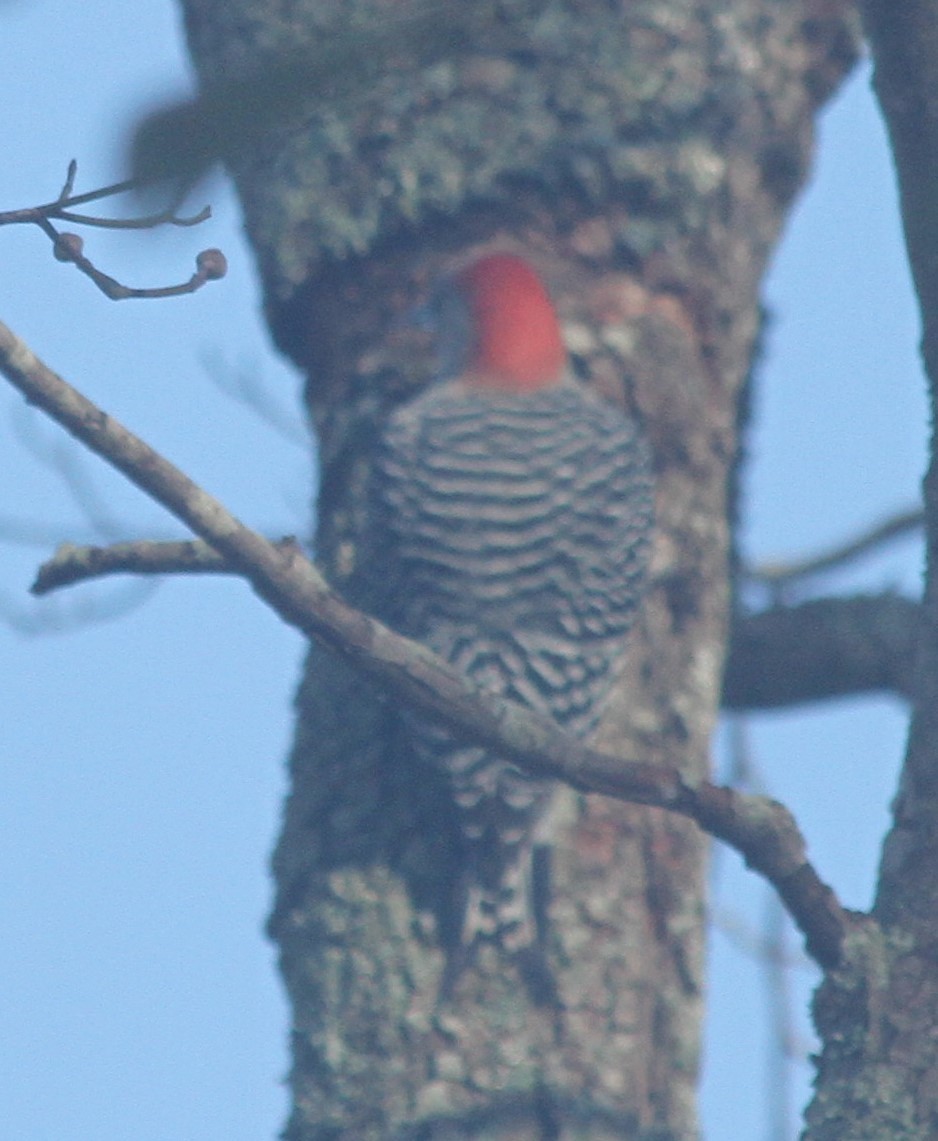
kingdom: Animalia
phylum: Chordata
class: Aves
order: Piciformes
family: Picidae
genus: Melanerpes
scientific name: Melanerpes carolinus
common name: Red-bellied woodpecker
